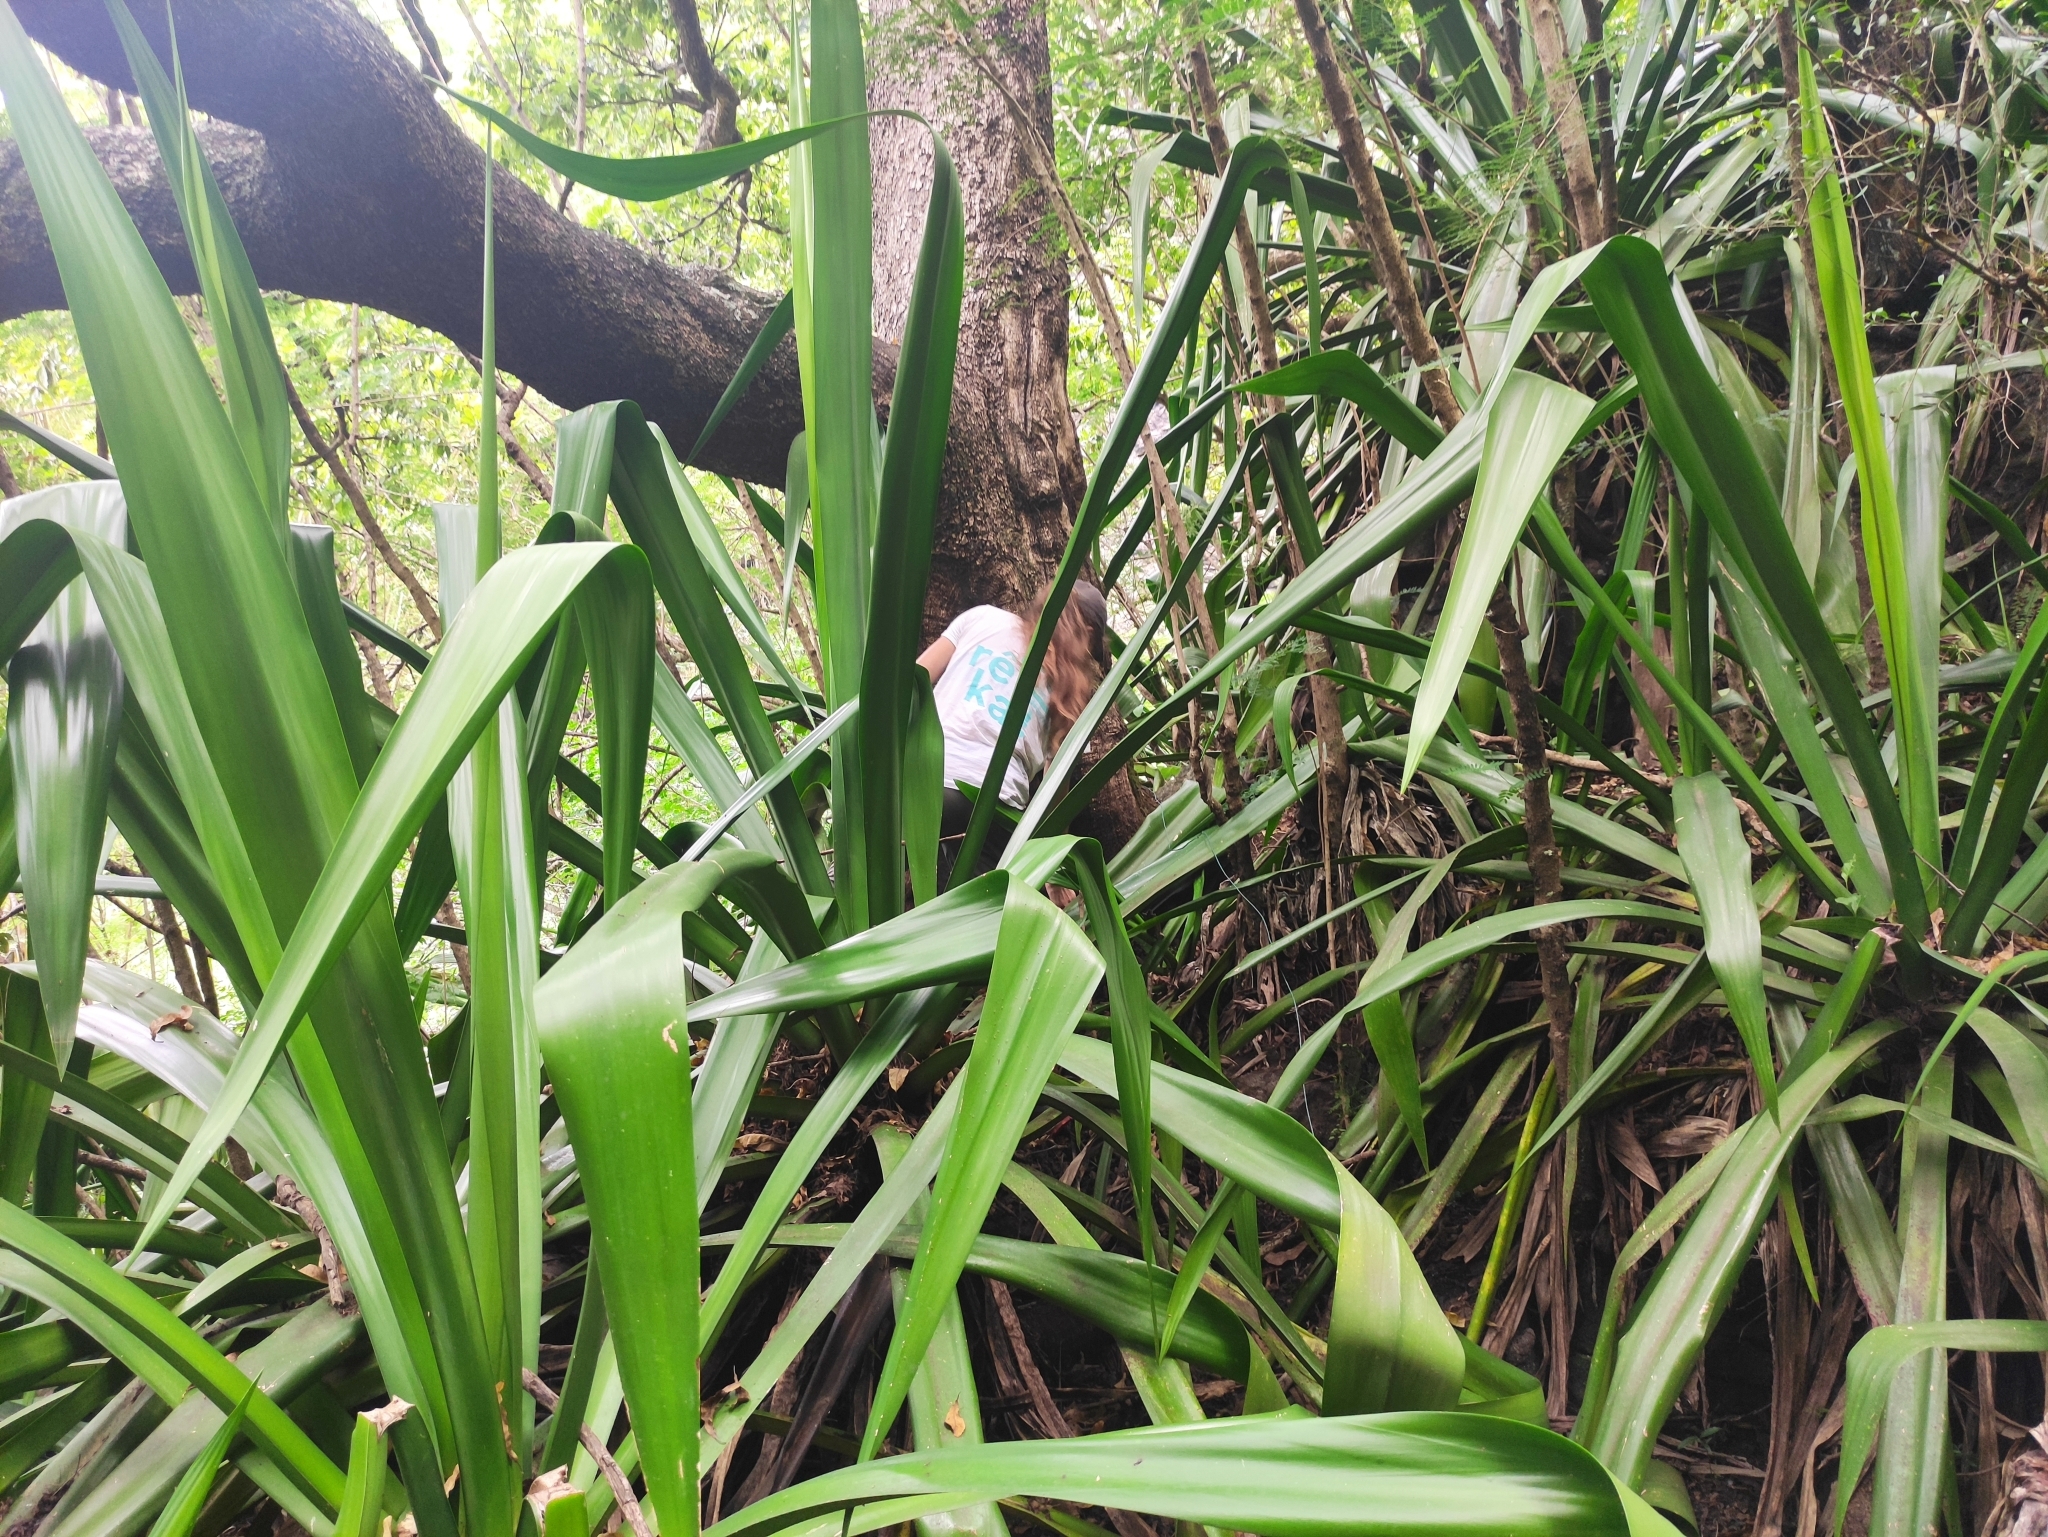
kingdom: Plantae
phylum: Tracheophyta
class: Liliopsida
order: Asparagales
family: Asparagaceae
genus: Furcraea
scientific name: Furcraea foetida
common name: Mauritius hemp
